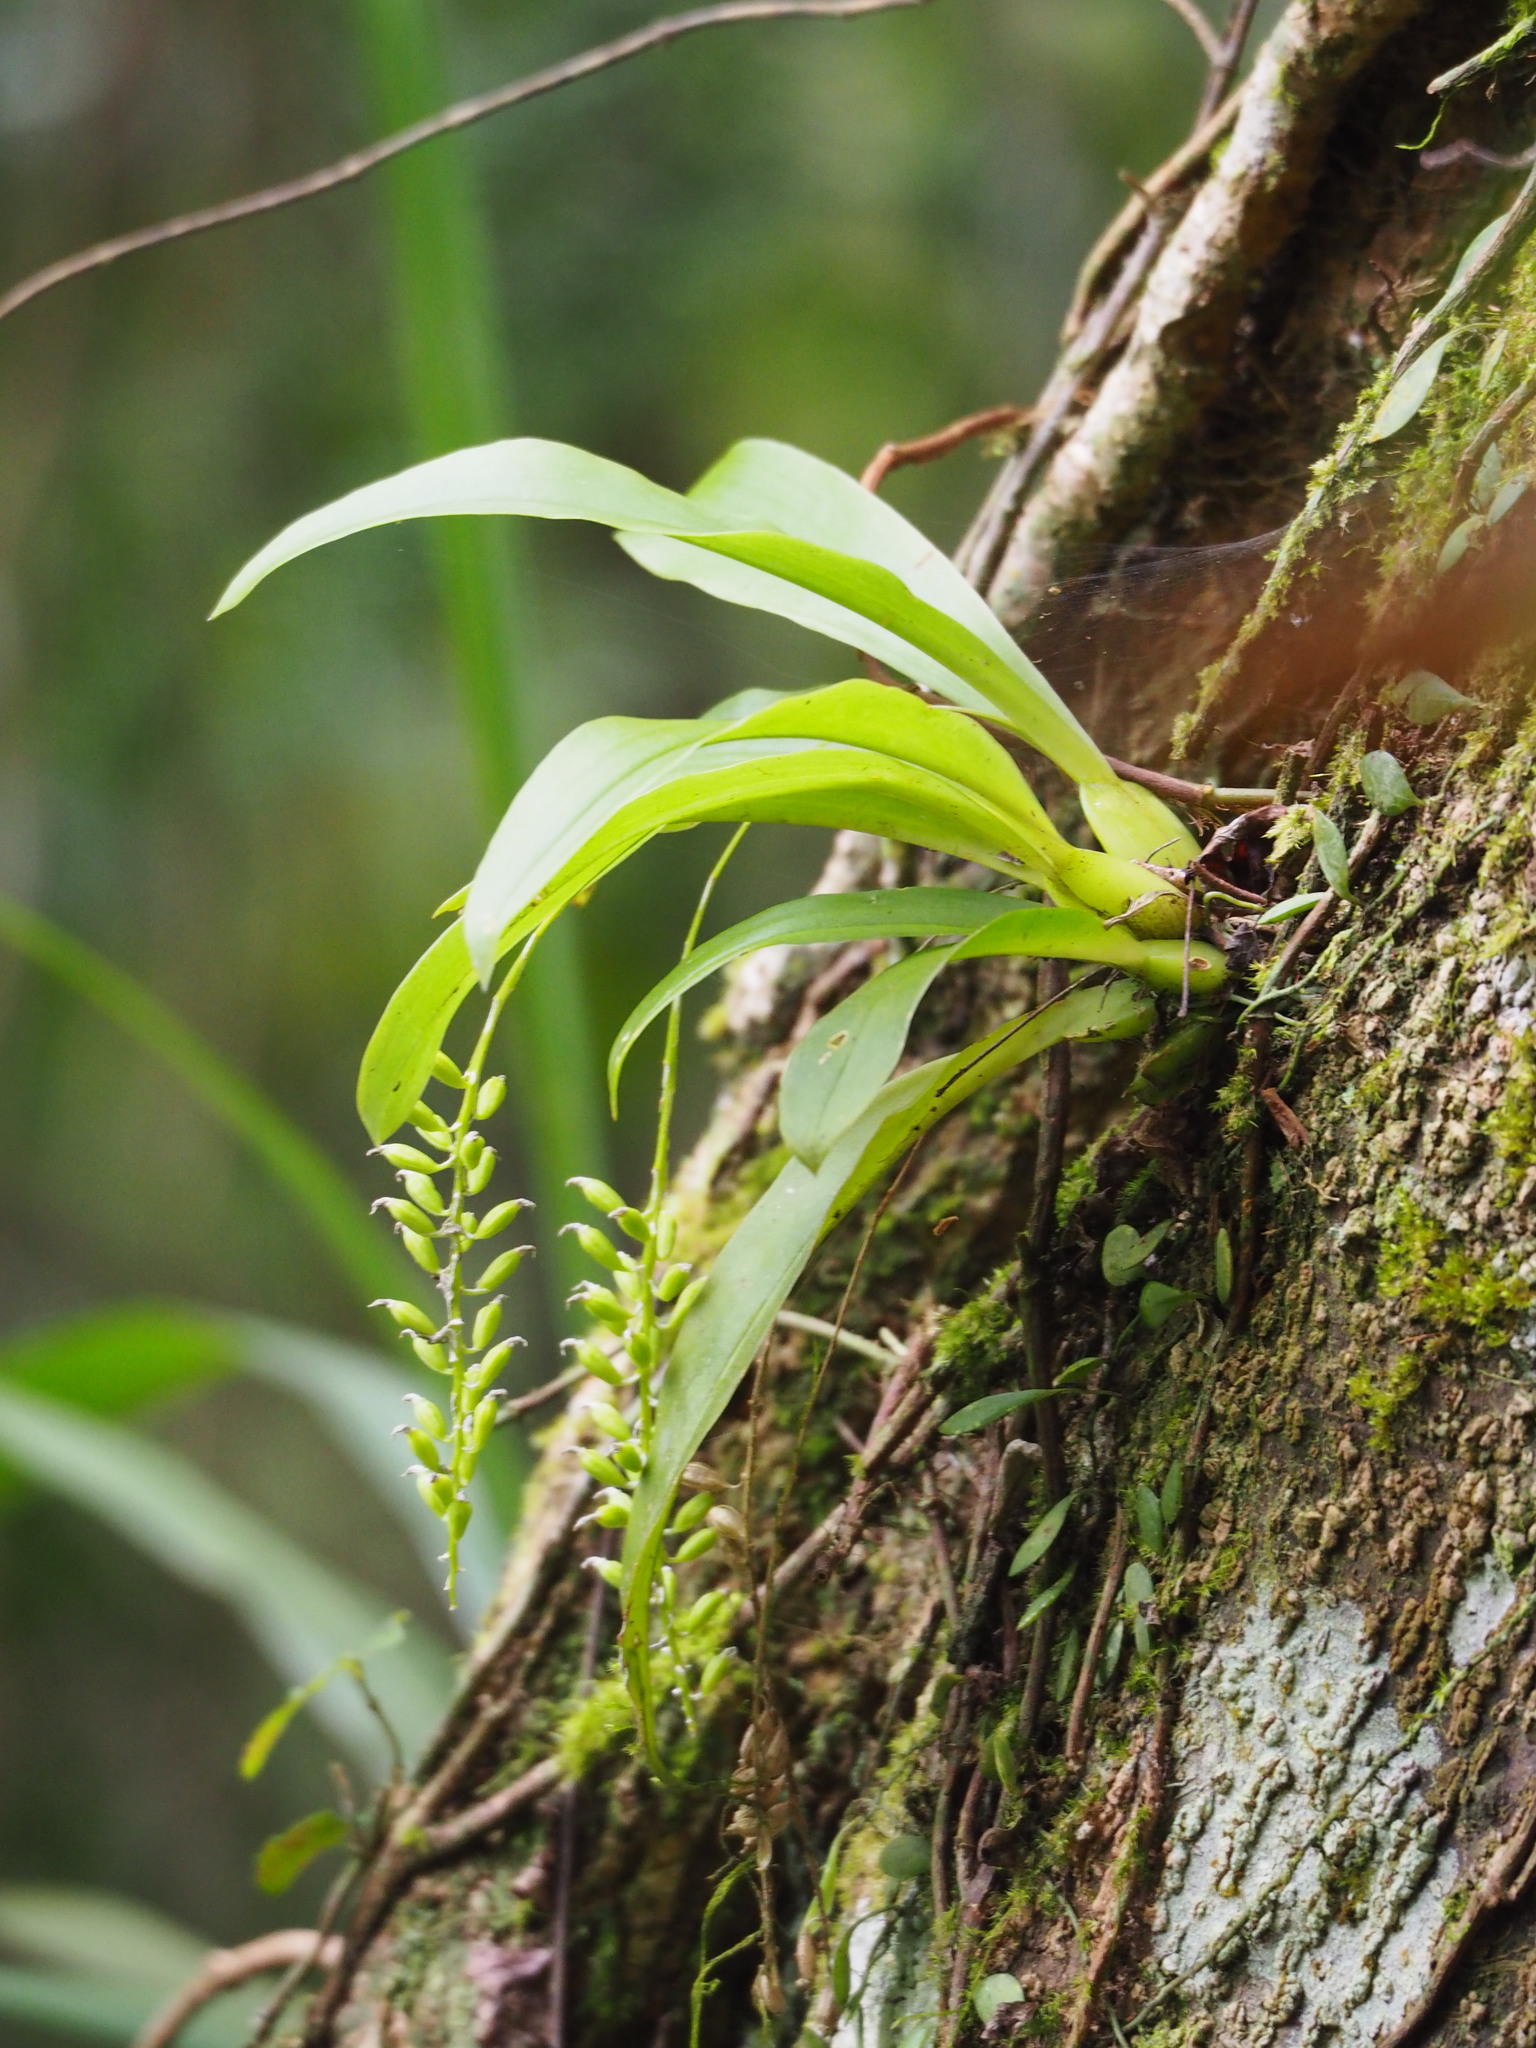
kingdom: Plantae
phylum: Tracheophyta
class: Liliopsida
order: Asparagales
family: Orchidaceae
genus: Liparis
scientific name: Liparis elliptica
